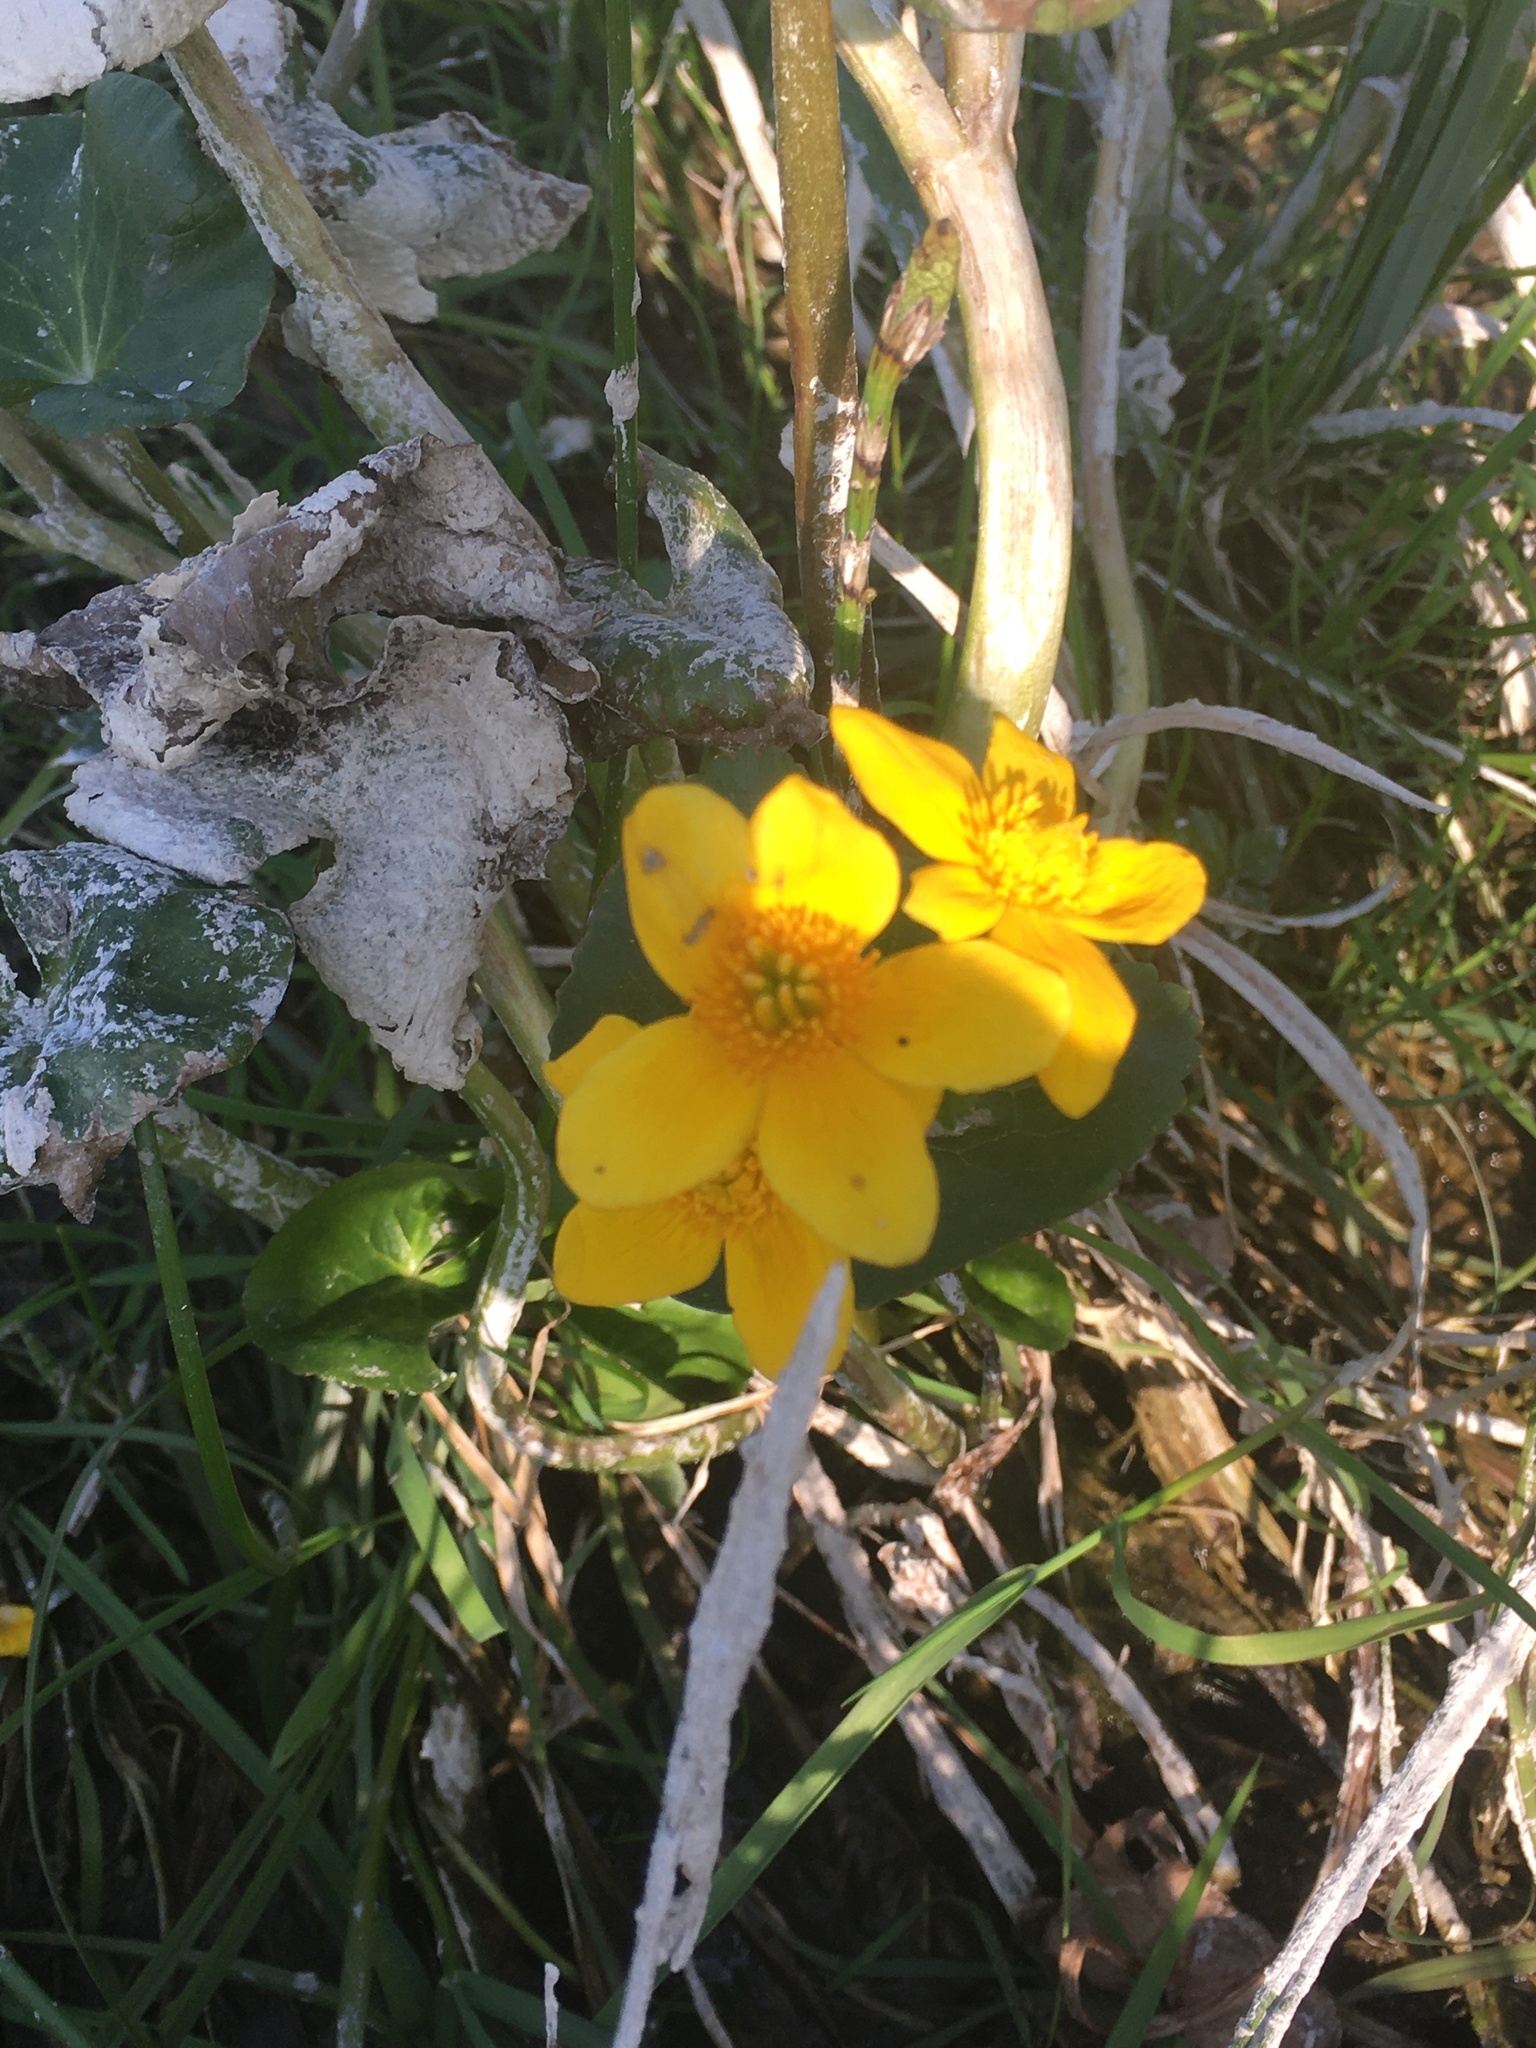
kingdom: Plantae
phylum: Tracheophyta
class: Magnoliopsida
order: Ranunculales
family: Ranunculaceae
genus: Caltha
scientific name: Caltha palustris
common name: Marsh marigold
